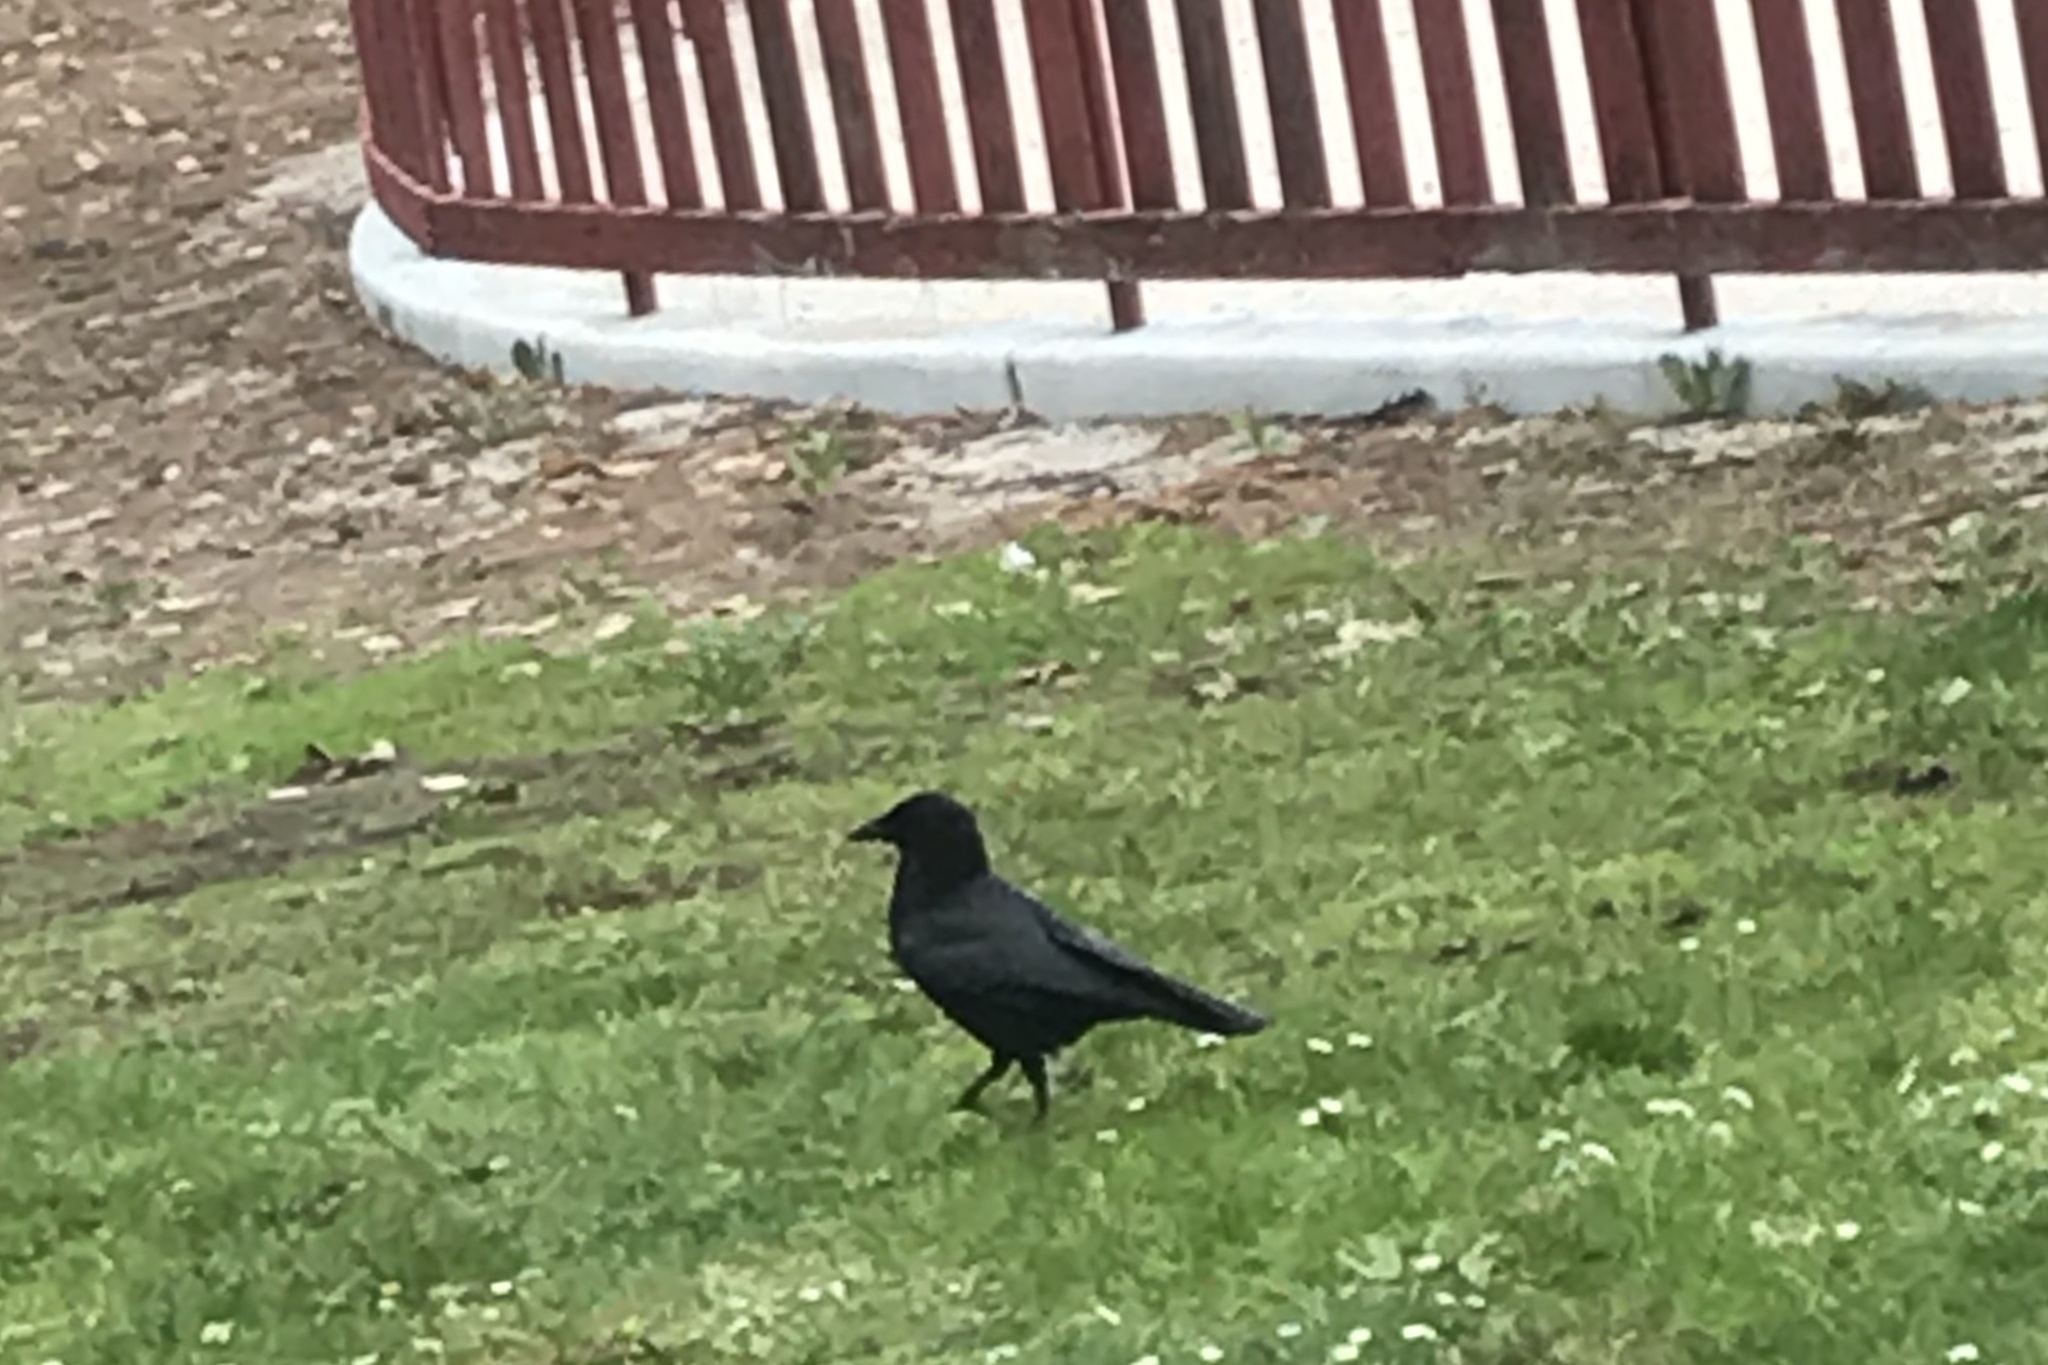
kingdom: Animalia
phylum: Chordata
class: Aves
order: Passeriformes
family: Corvidae
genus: Corvus
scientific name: Corvus brachyrhynchos
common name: American crow
